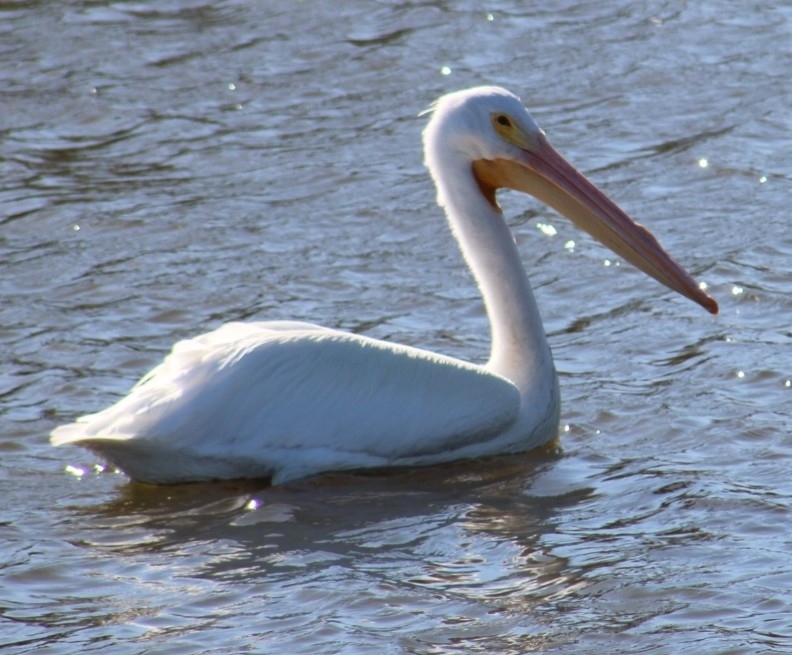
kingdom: Animalia
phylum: Chordata
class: Aves
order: Pelecaniformes
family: Pelecanidae
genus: Pelecanus
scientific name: Pelecanus erythrorhynchos
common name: American white pelican
